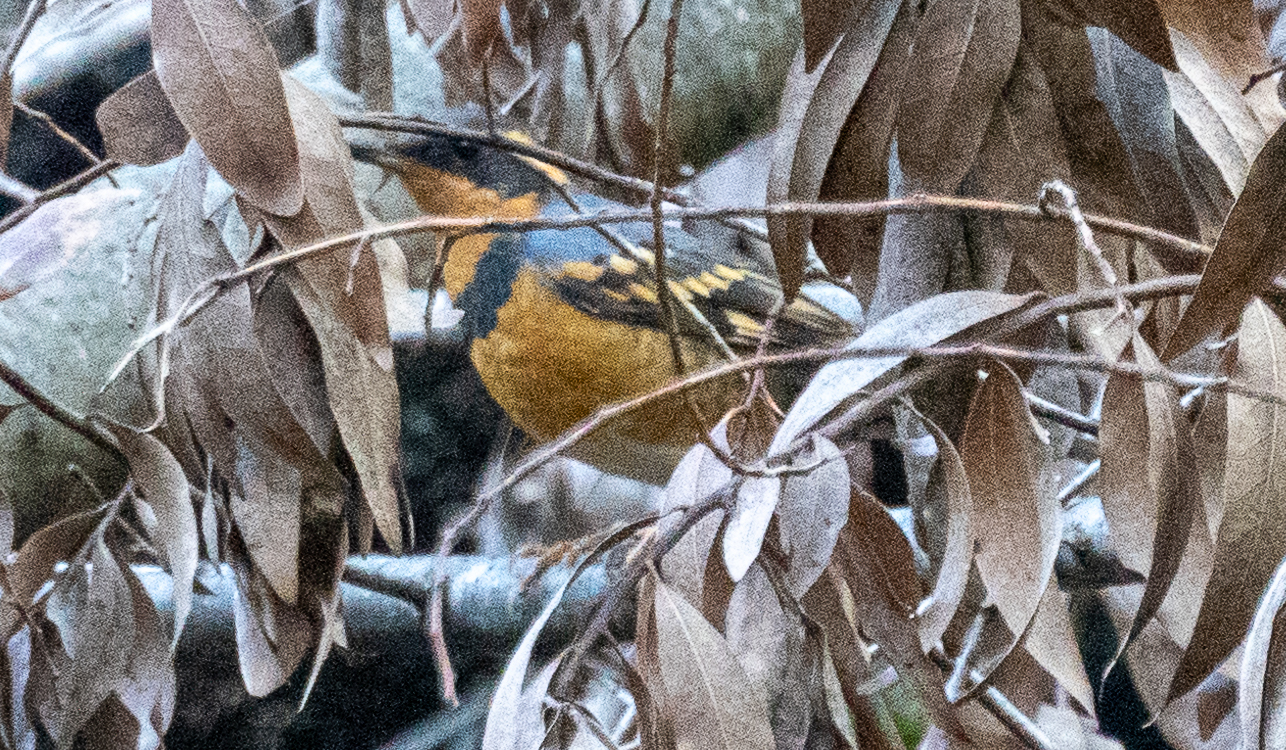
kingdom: Animalia
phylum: Chordata
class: Aves
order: Passeriformes
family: Turdidae
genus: Ixoreus
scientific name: Ixoreus naevius
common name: Varied thrush
